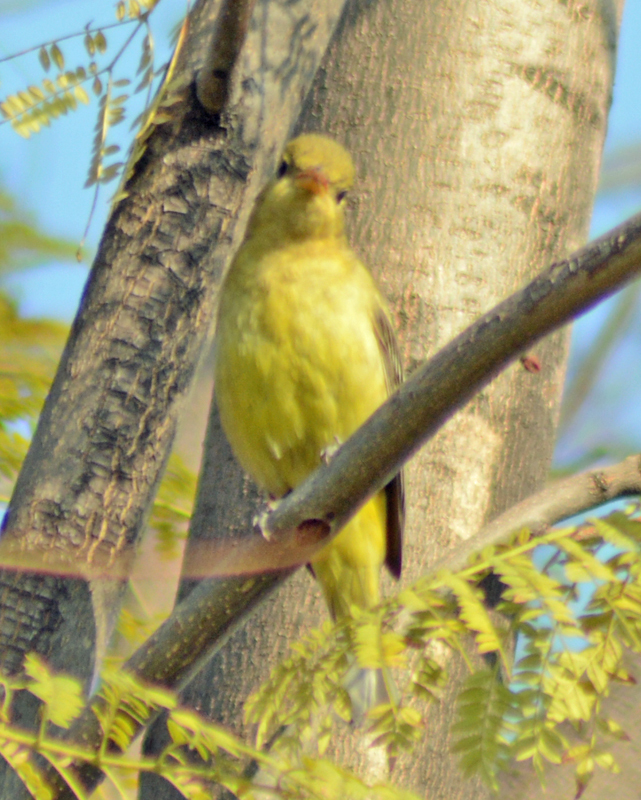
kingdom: Animalia
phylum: Chordata
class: Aves
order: Passeriformes
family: Cardinalidae
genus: Piranga
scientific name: Piranga ludoviciana
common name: Western tanager
